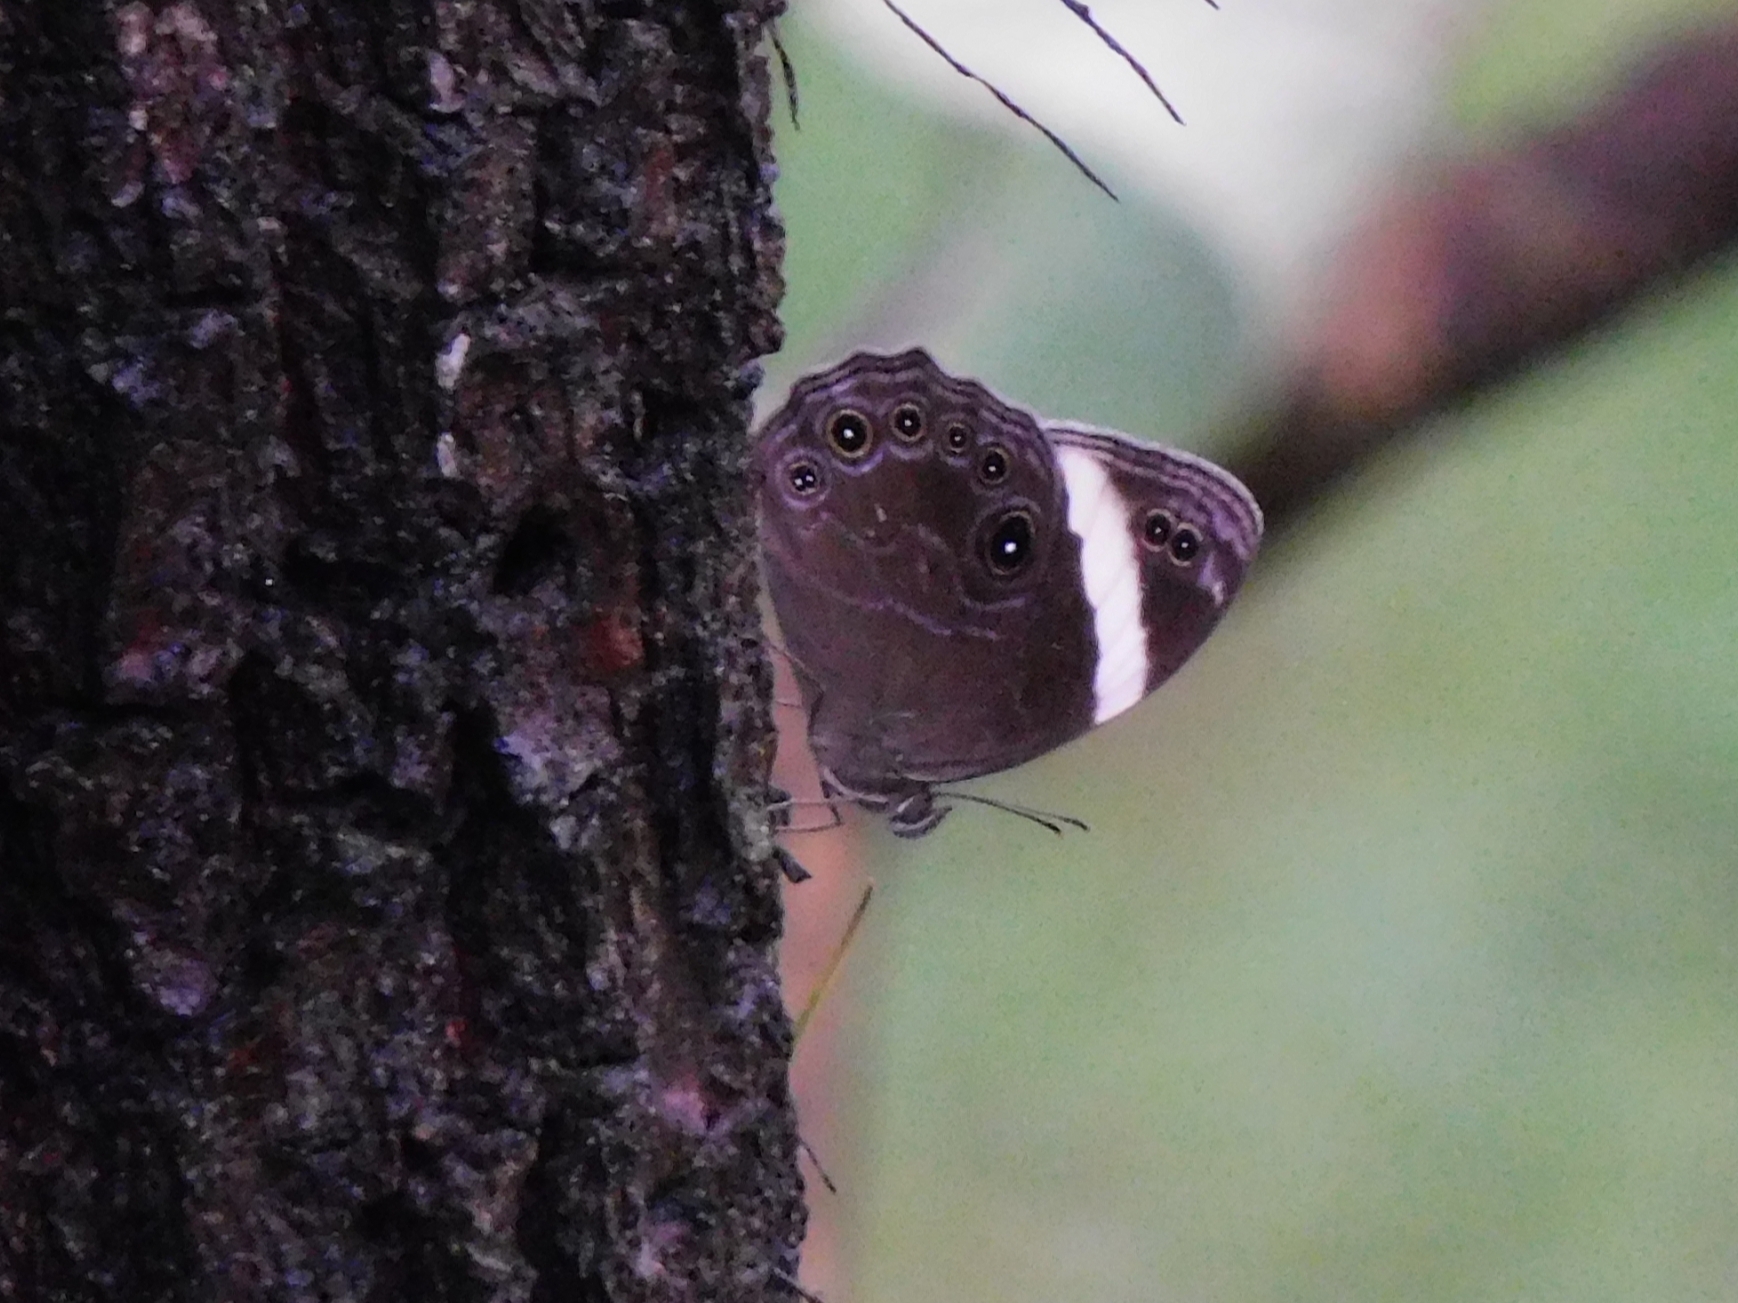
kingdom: Animalia
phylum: Arthropoda
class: Insecta
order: Lepidoptera
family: Nymphalidae
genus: Lethe
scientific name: Lethe verma
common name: Straight-banded treebrown
